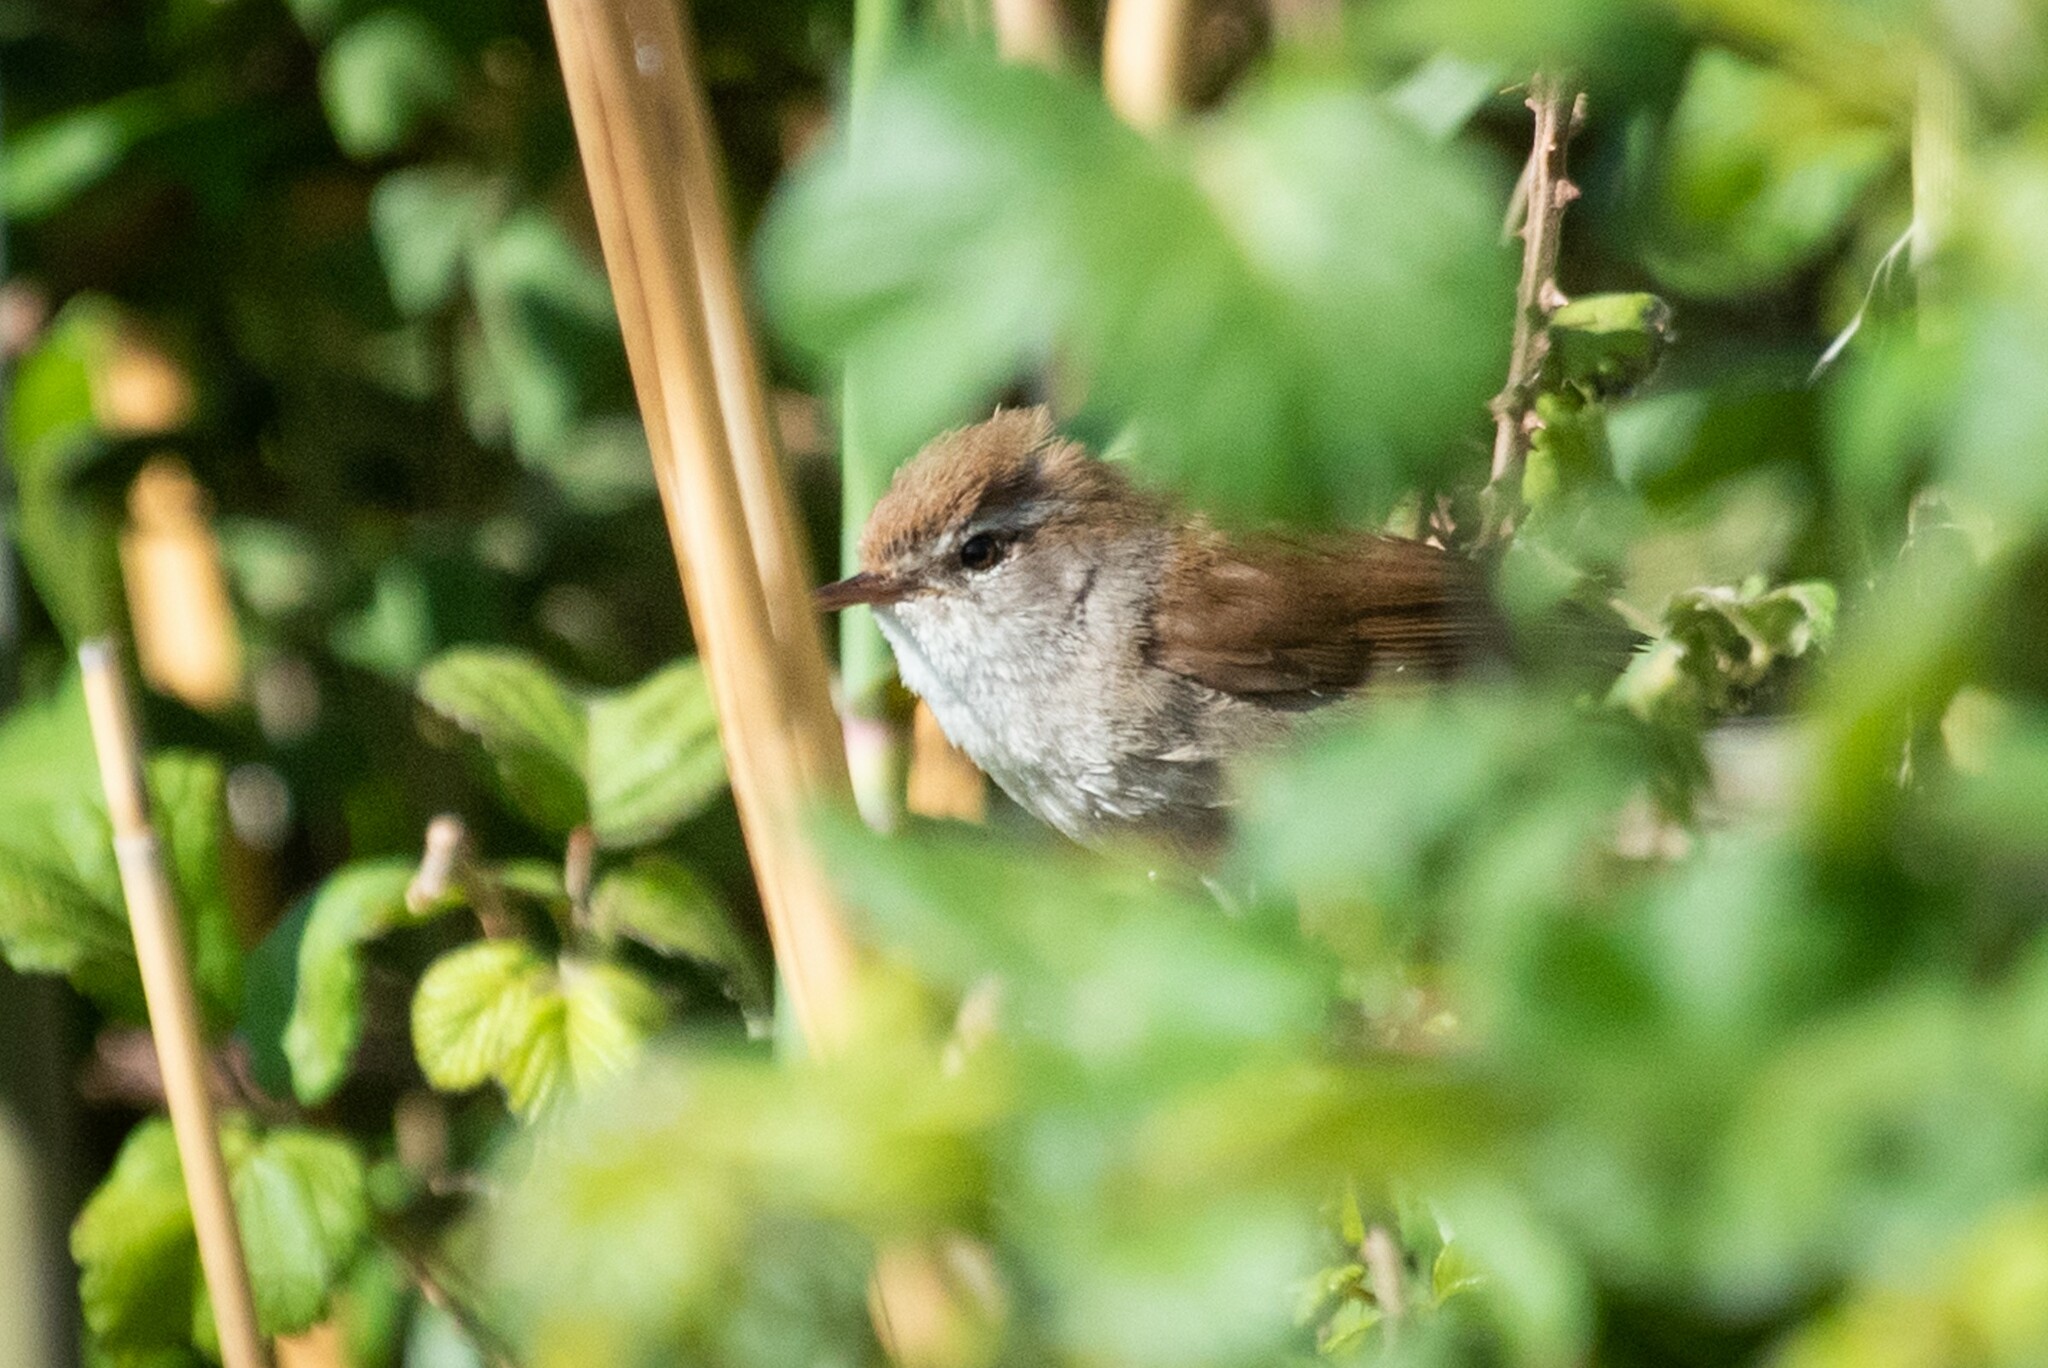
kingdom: Animalia
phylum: Chordata
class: Aves
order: Passeriformes
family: Cettiidae
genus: Cettia
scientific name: Cettia cetti
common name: Cetti's warbler
